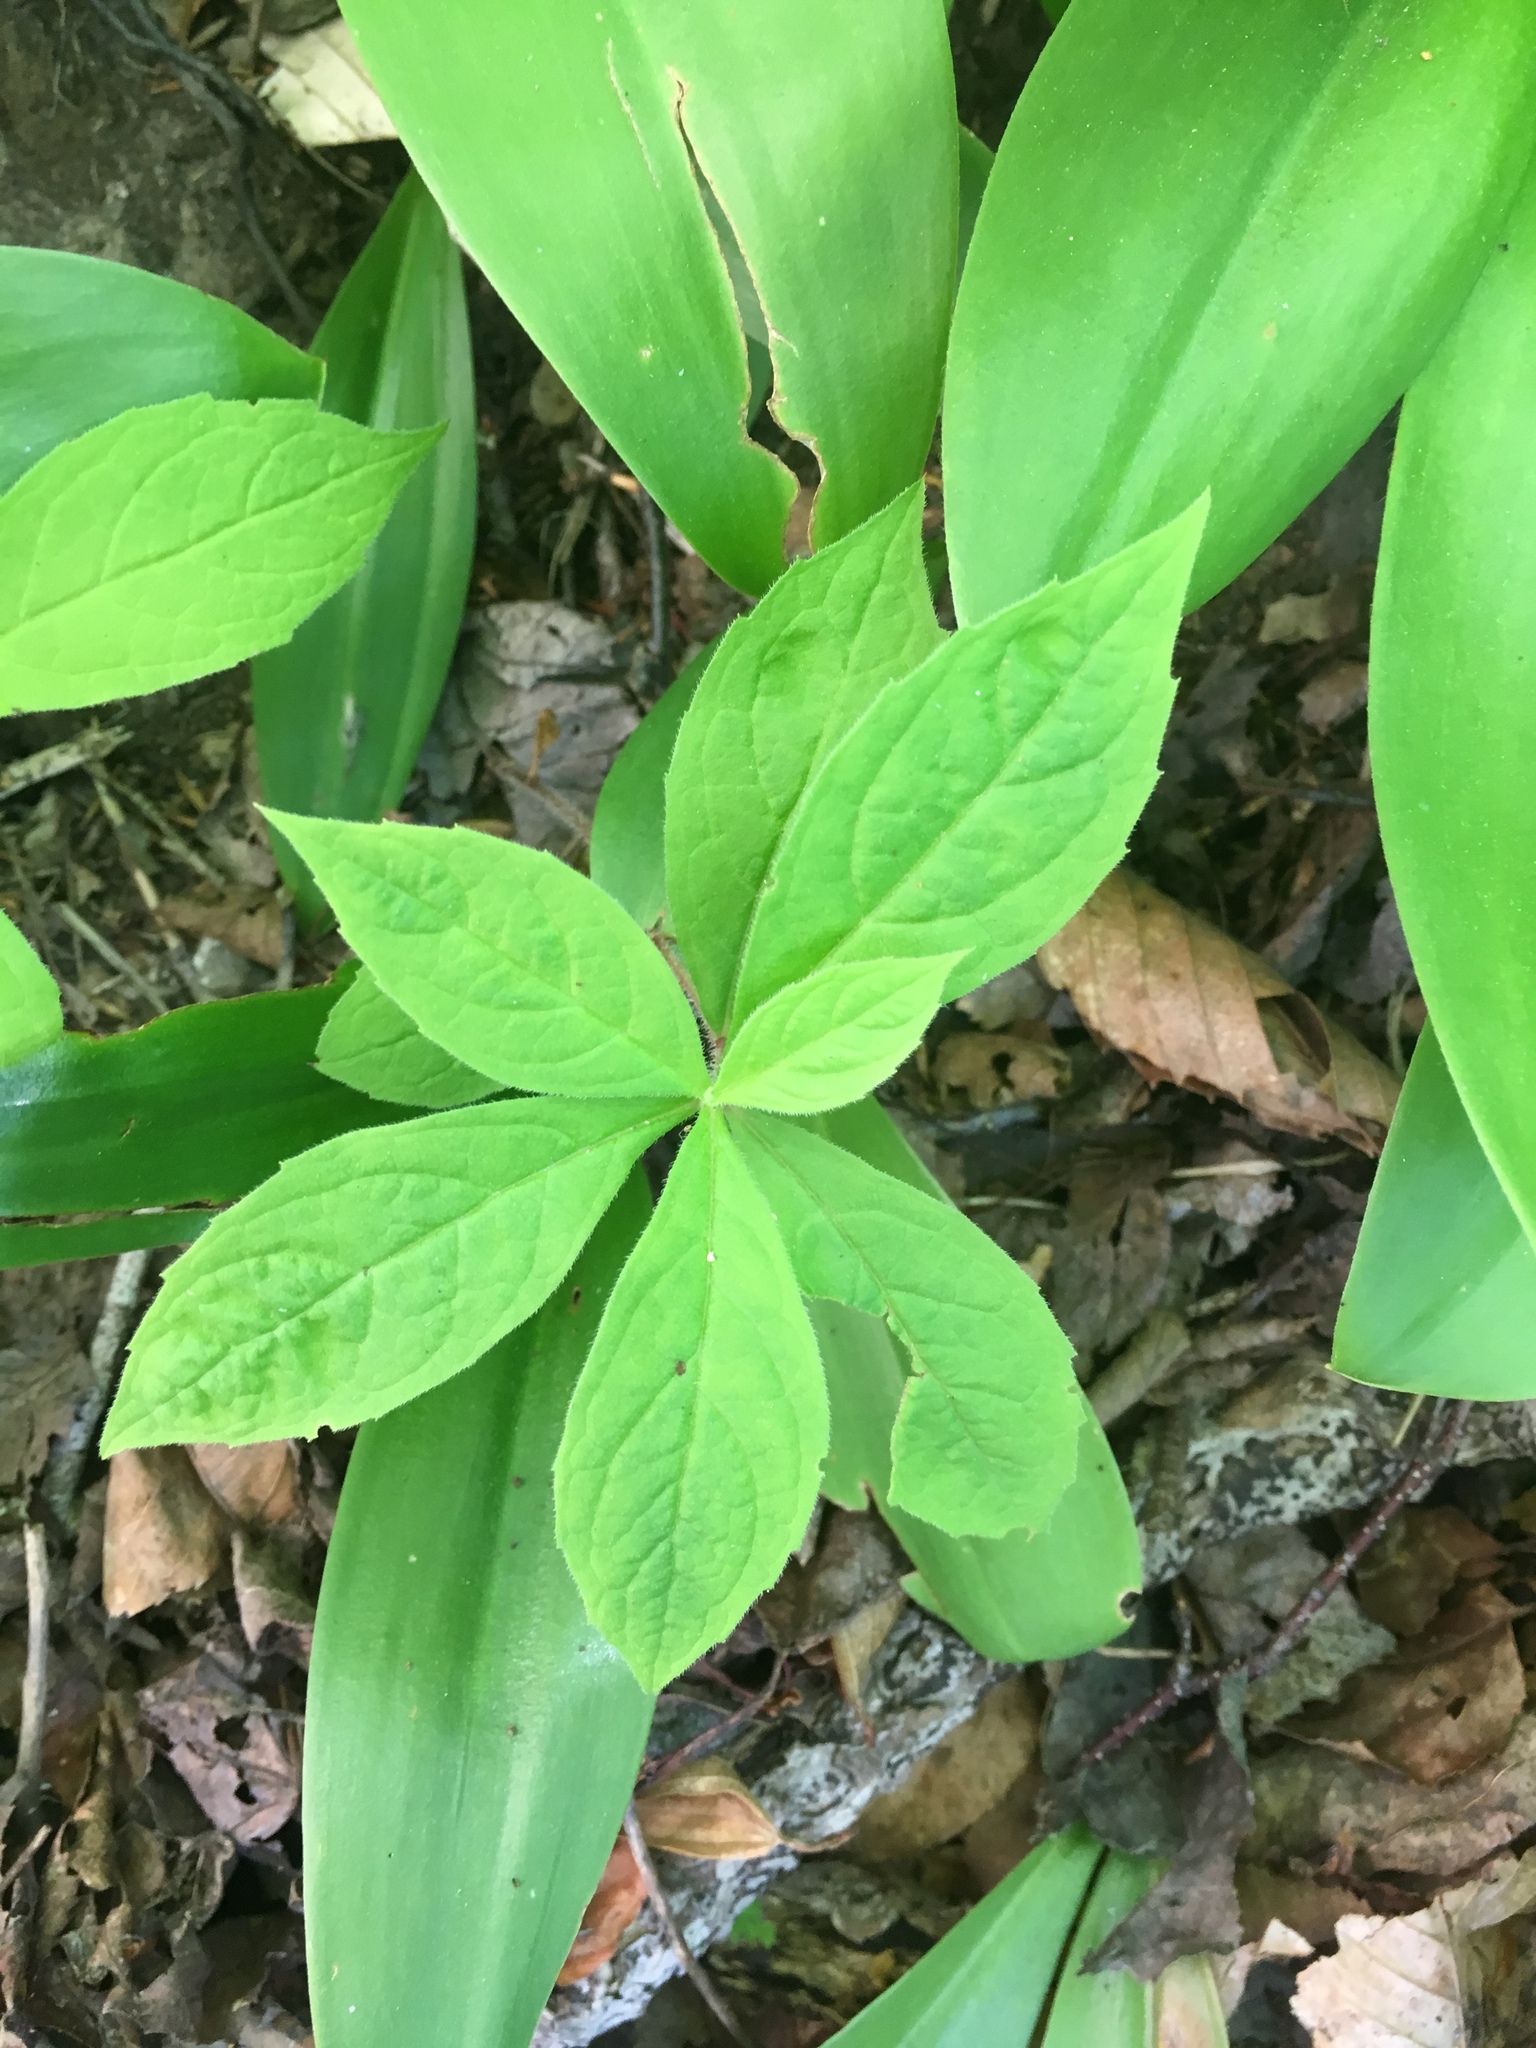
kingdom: Plantae
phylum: Tracheophyta
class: Magnoliopsida
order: Asterales
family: Asteraceae
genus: Oclemena
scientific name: Oclemena acuminata
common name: Mountain aster
